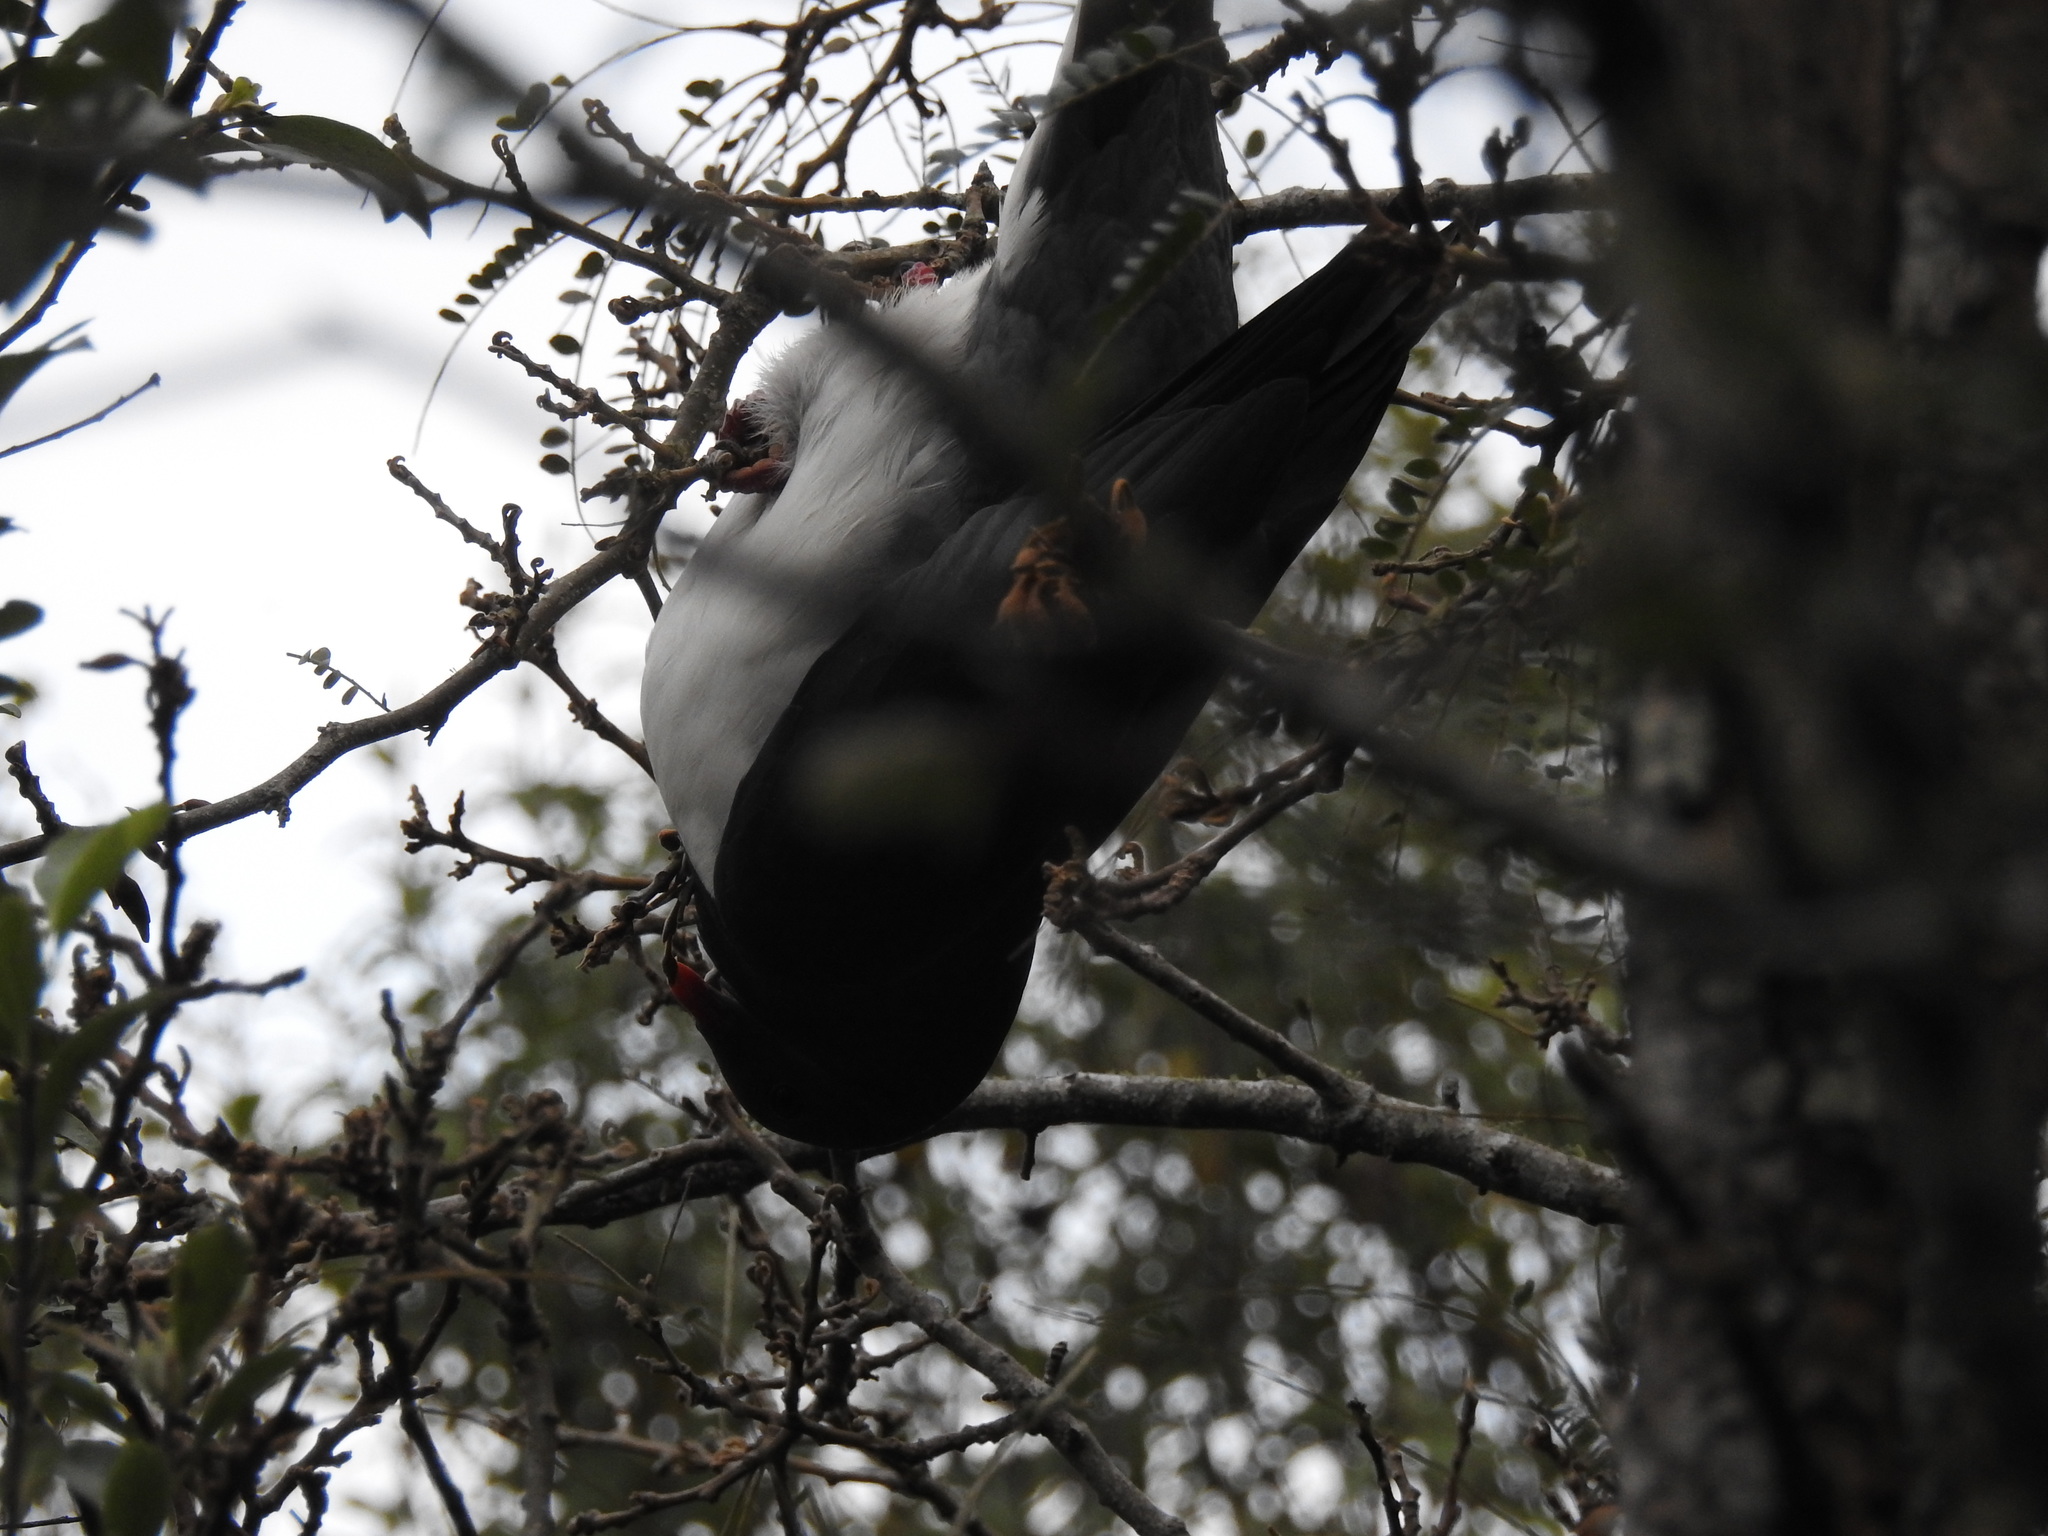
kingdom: Animalia
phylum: Chordata
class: Aves
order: Columbiformes
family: Columbidae
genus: Hemiphaga
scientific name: Hemiphaga novaeseelandiae
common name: New zealand pigeon
